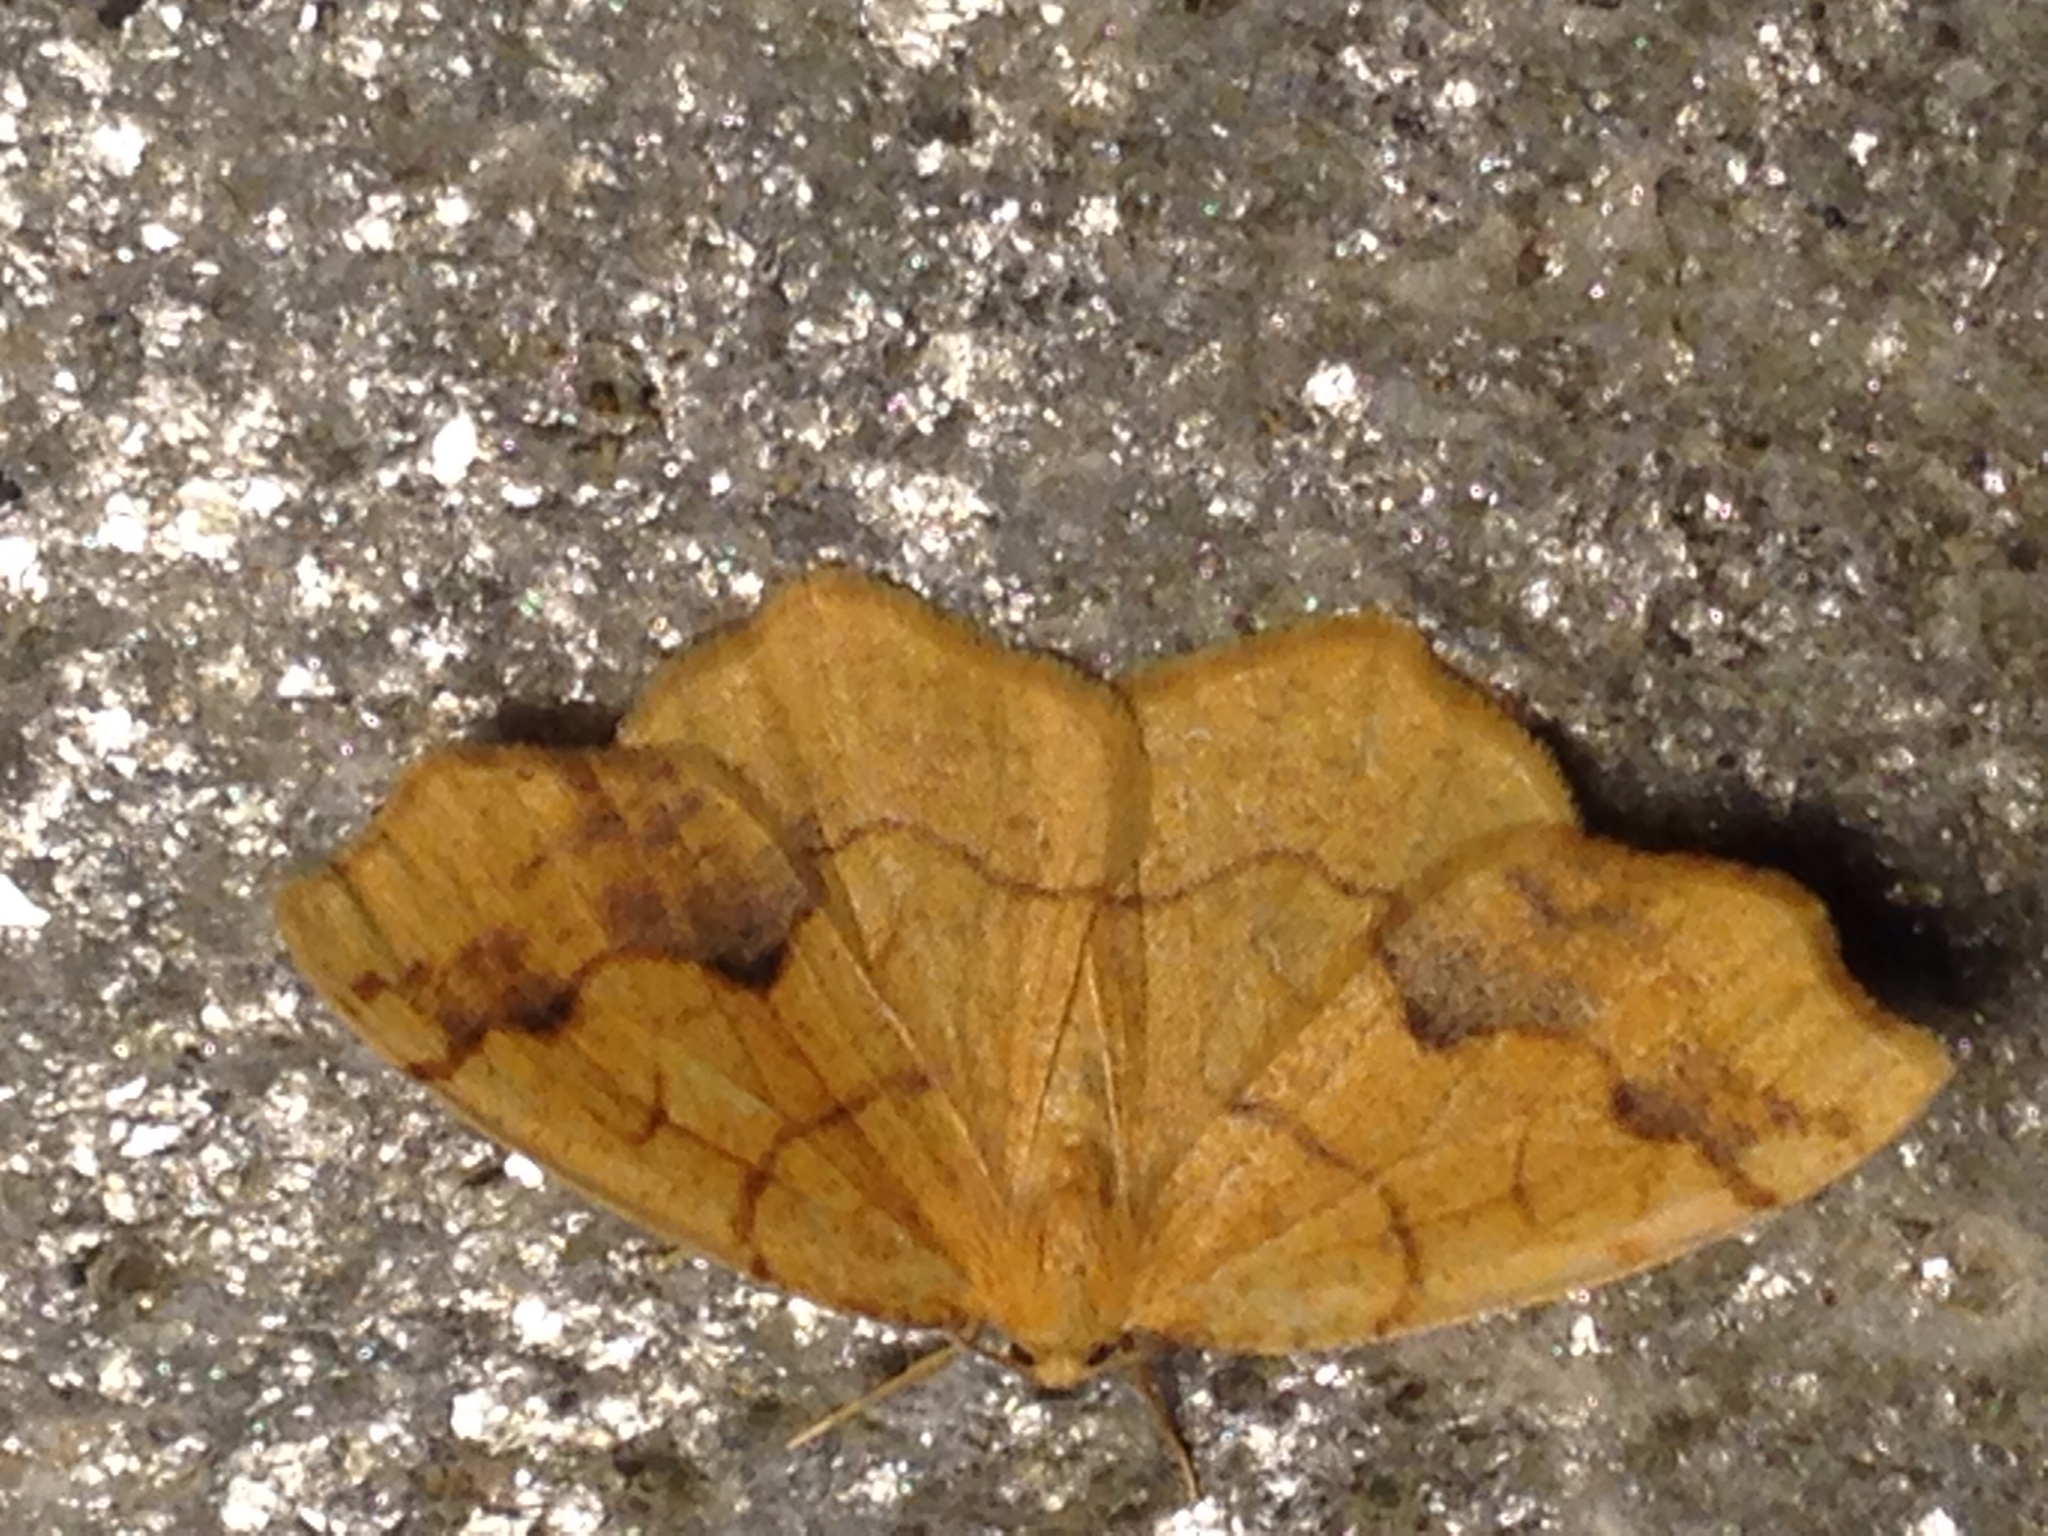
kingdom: Animalia
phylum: Arthropoda
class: Insecta
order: Lepidoptera
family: Geometridae
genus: Nematocampa
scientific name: Nematocampa brehmeata
